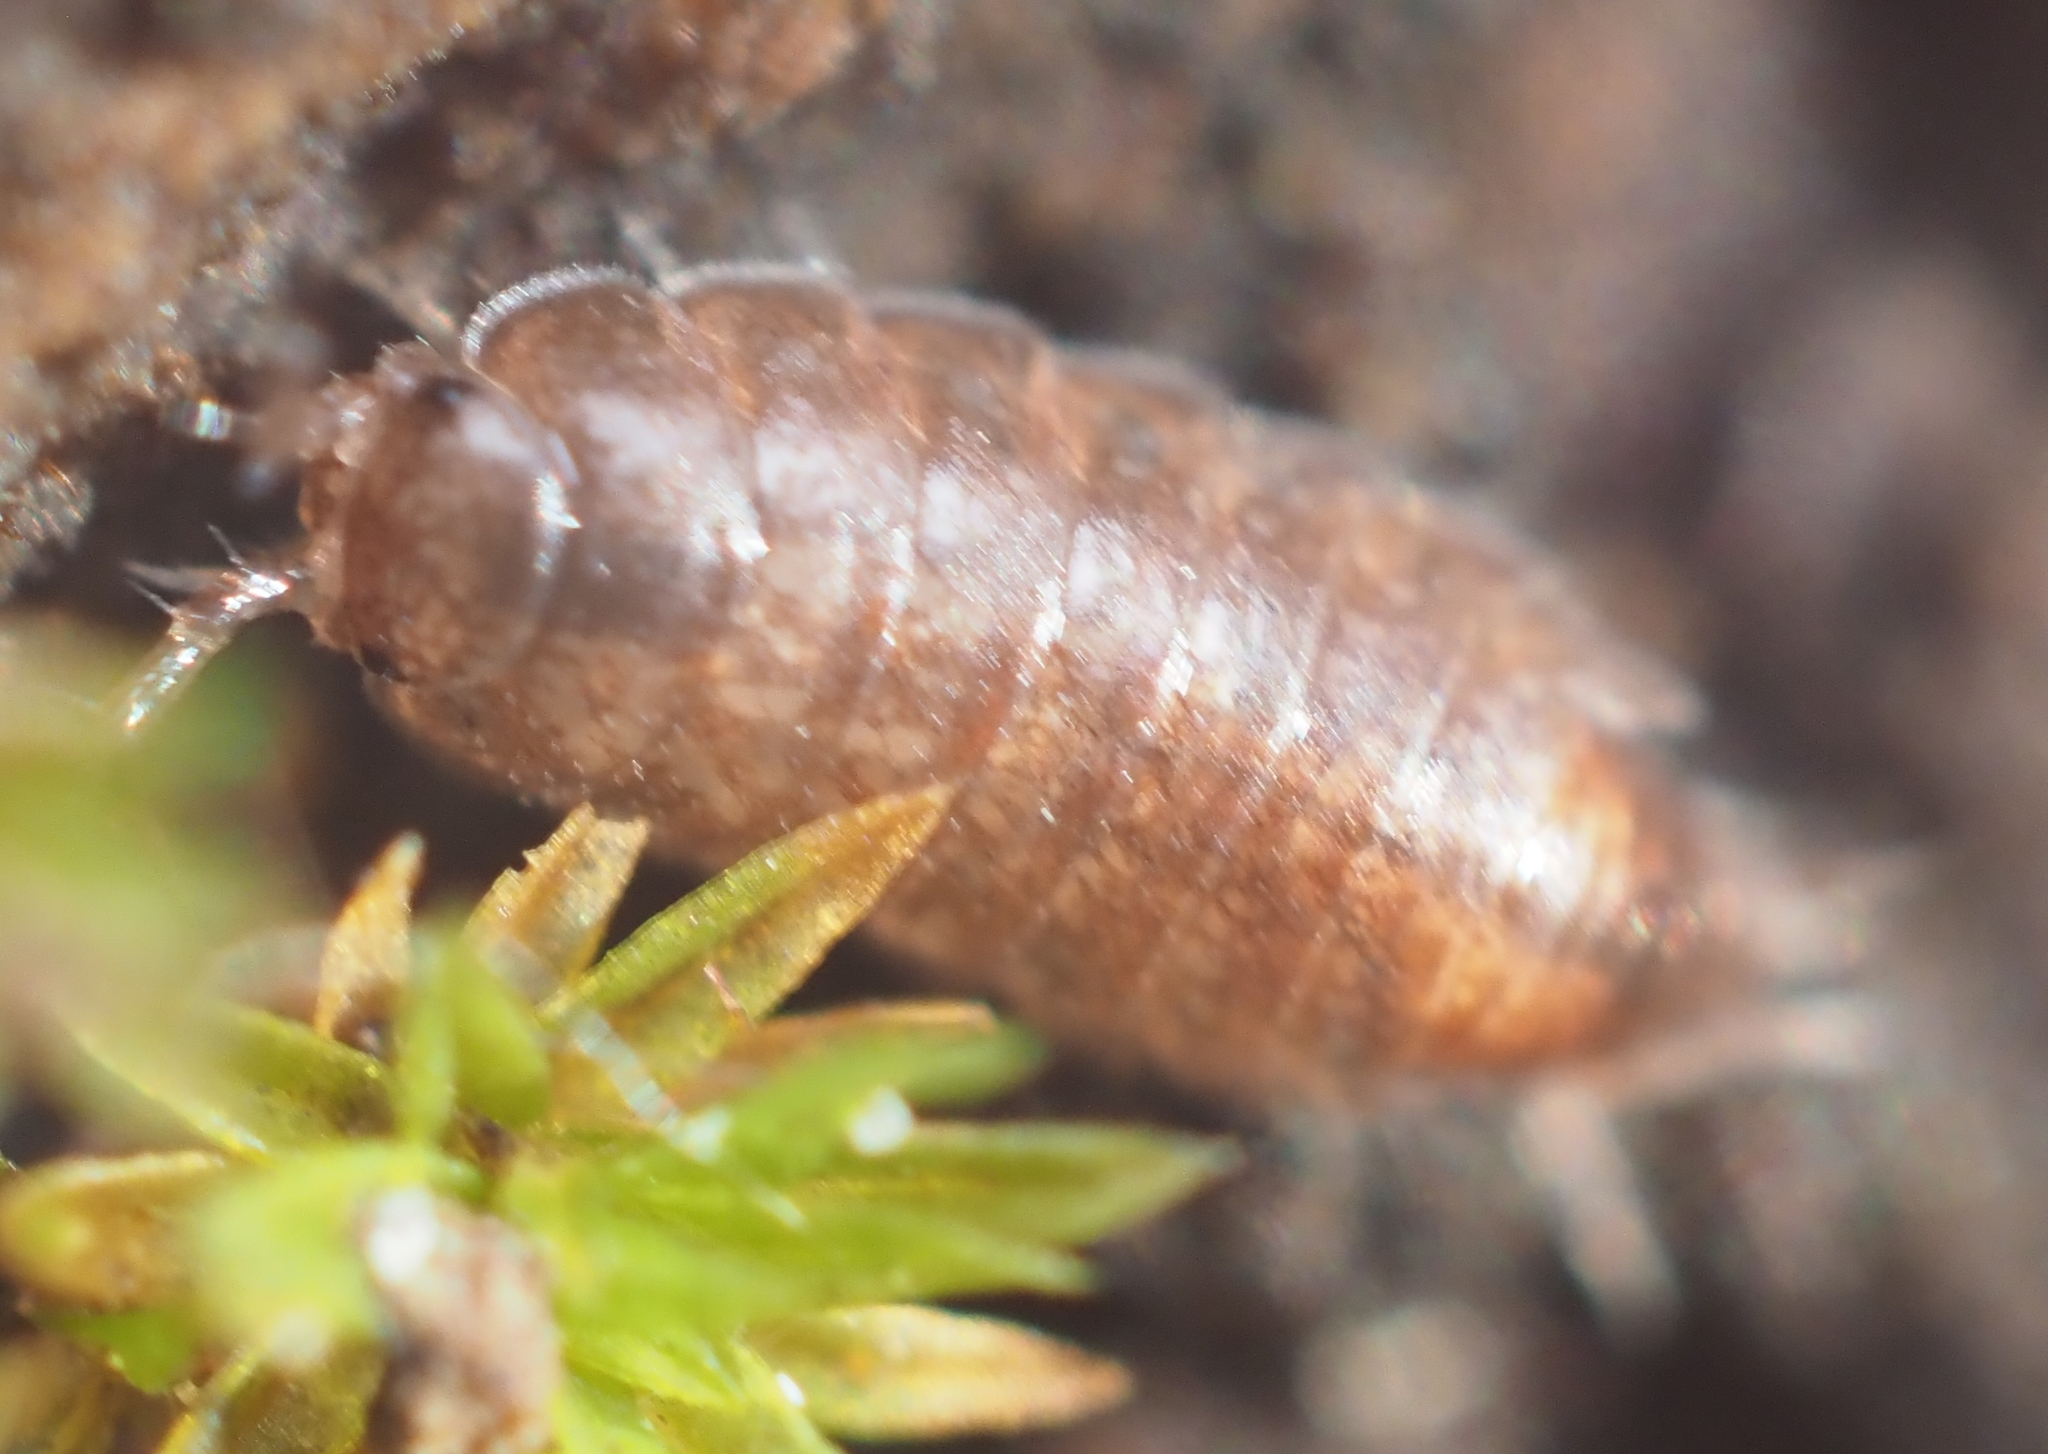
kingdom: Animalia
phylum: Arthropoda
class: Malacostraca
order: Isopoda
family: Trichoniscidae
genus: Hyloniscus
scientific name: Hyloniscus riparius
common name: Isopod
